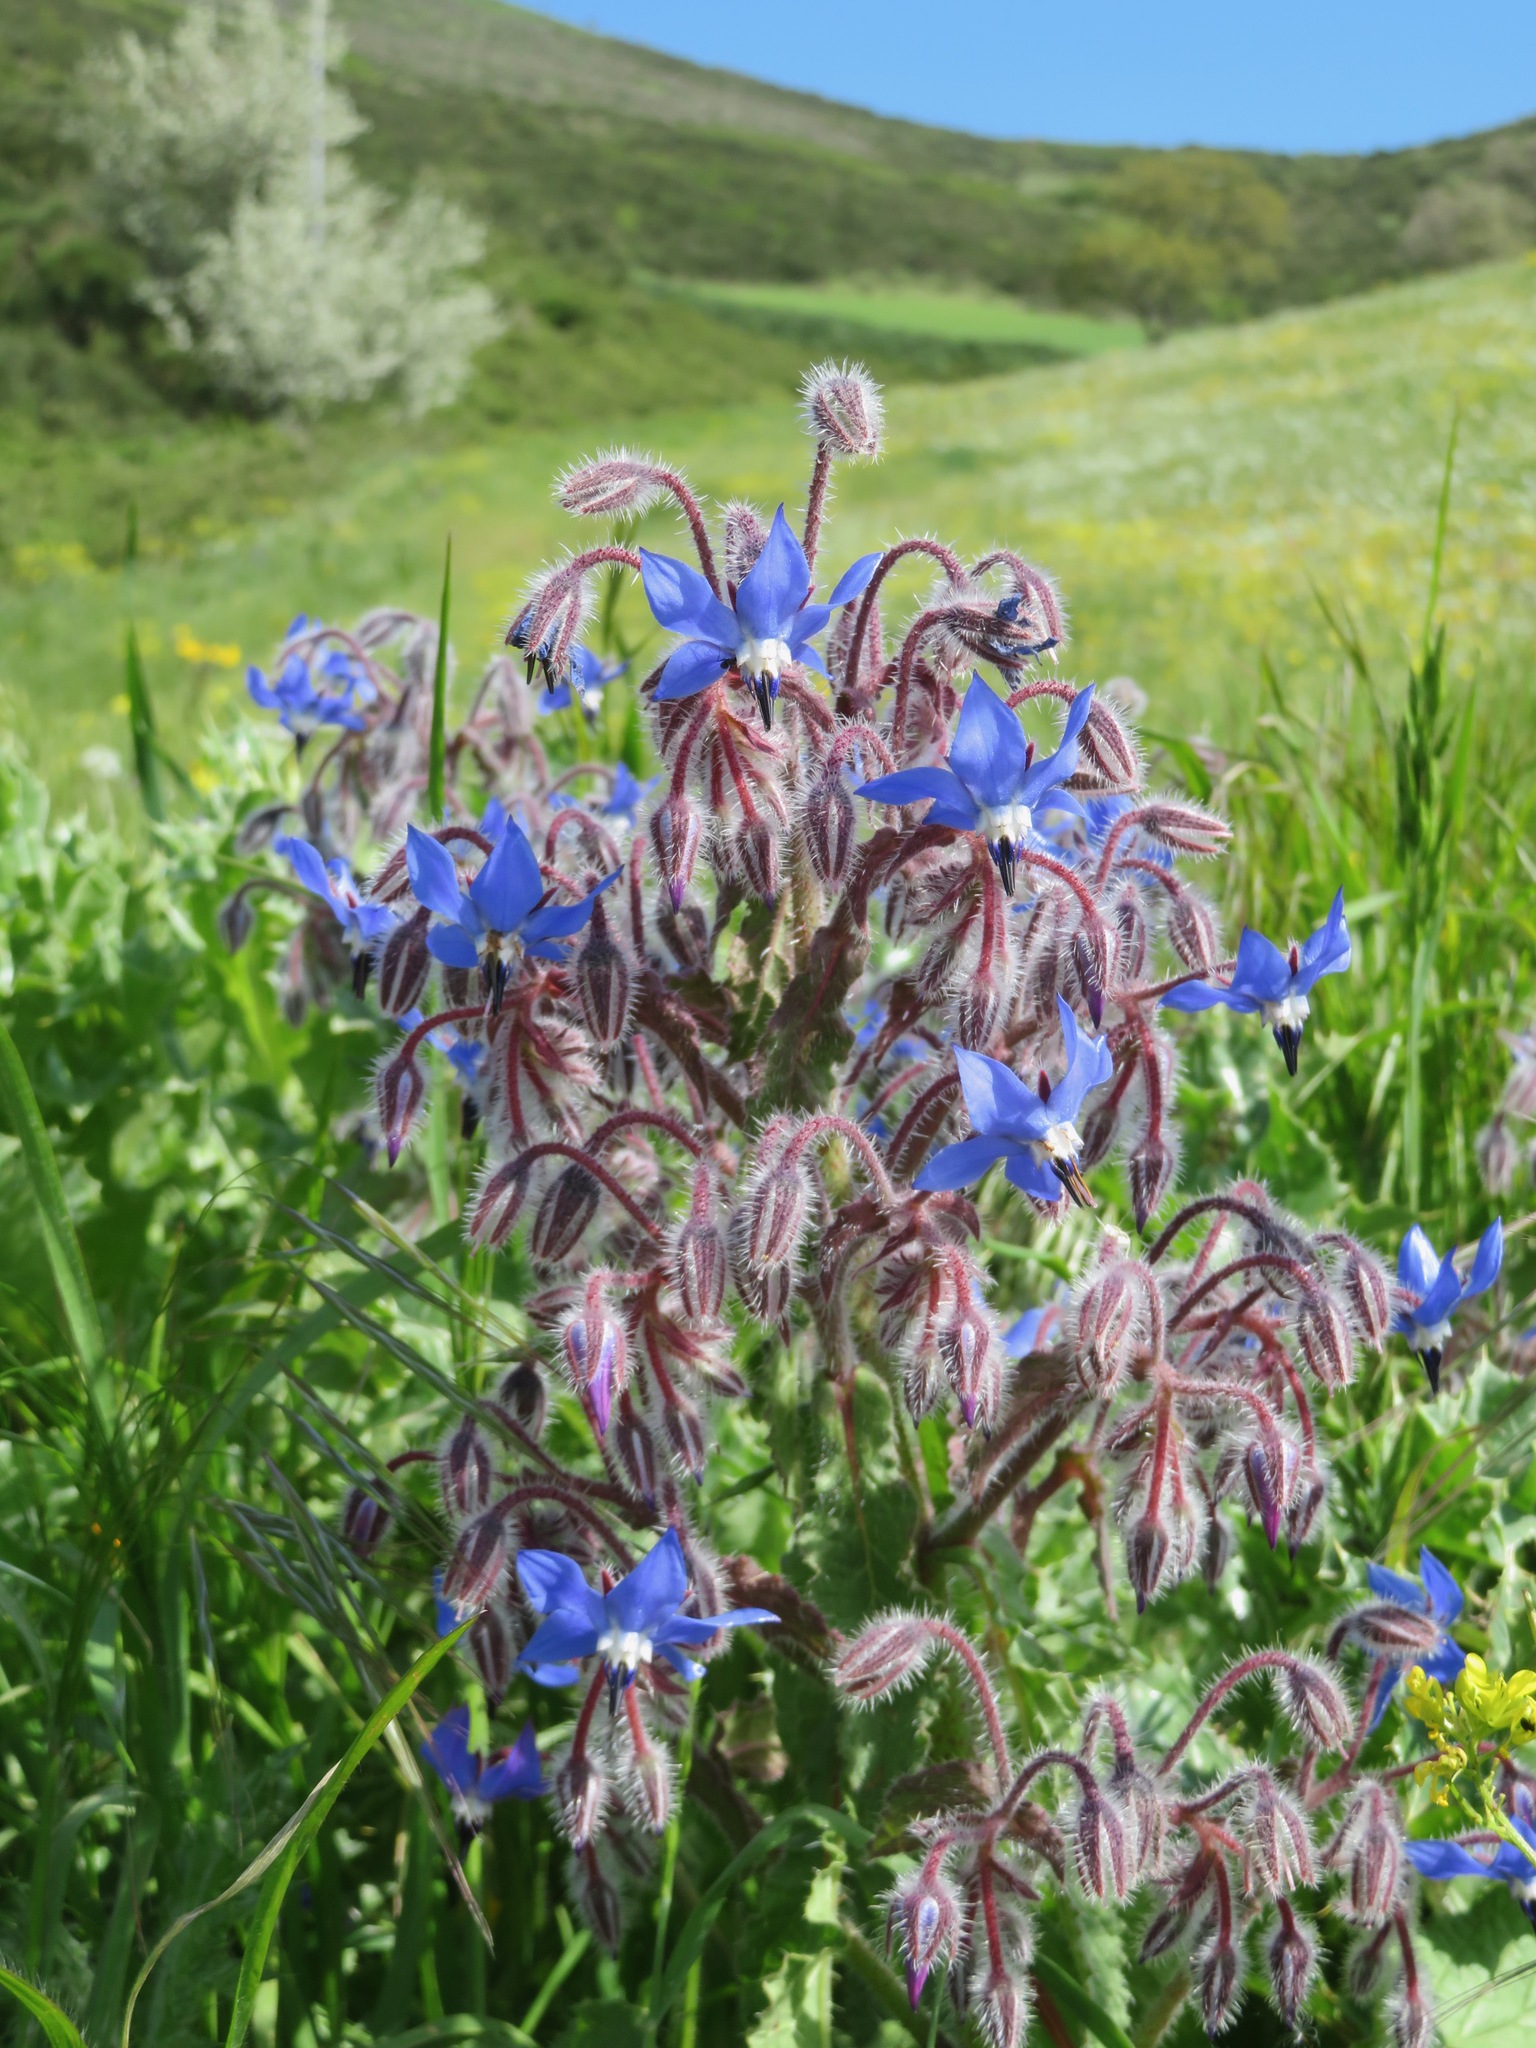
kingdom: Plantae
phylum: Tracheophyta
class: Magnoliopsida
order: Boraginales
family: Boraginaceae
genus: Borago
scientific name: Borago officinalis
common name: Borage
